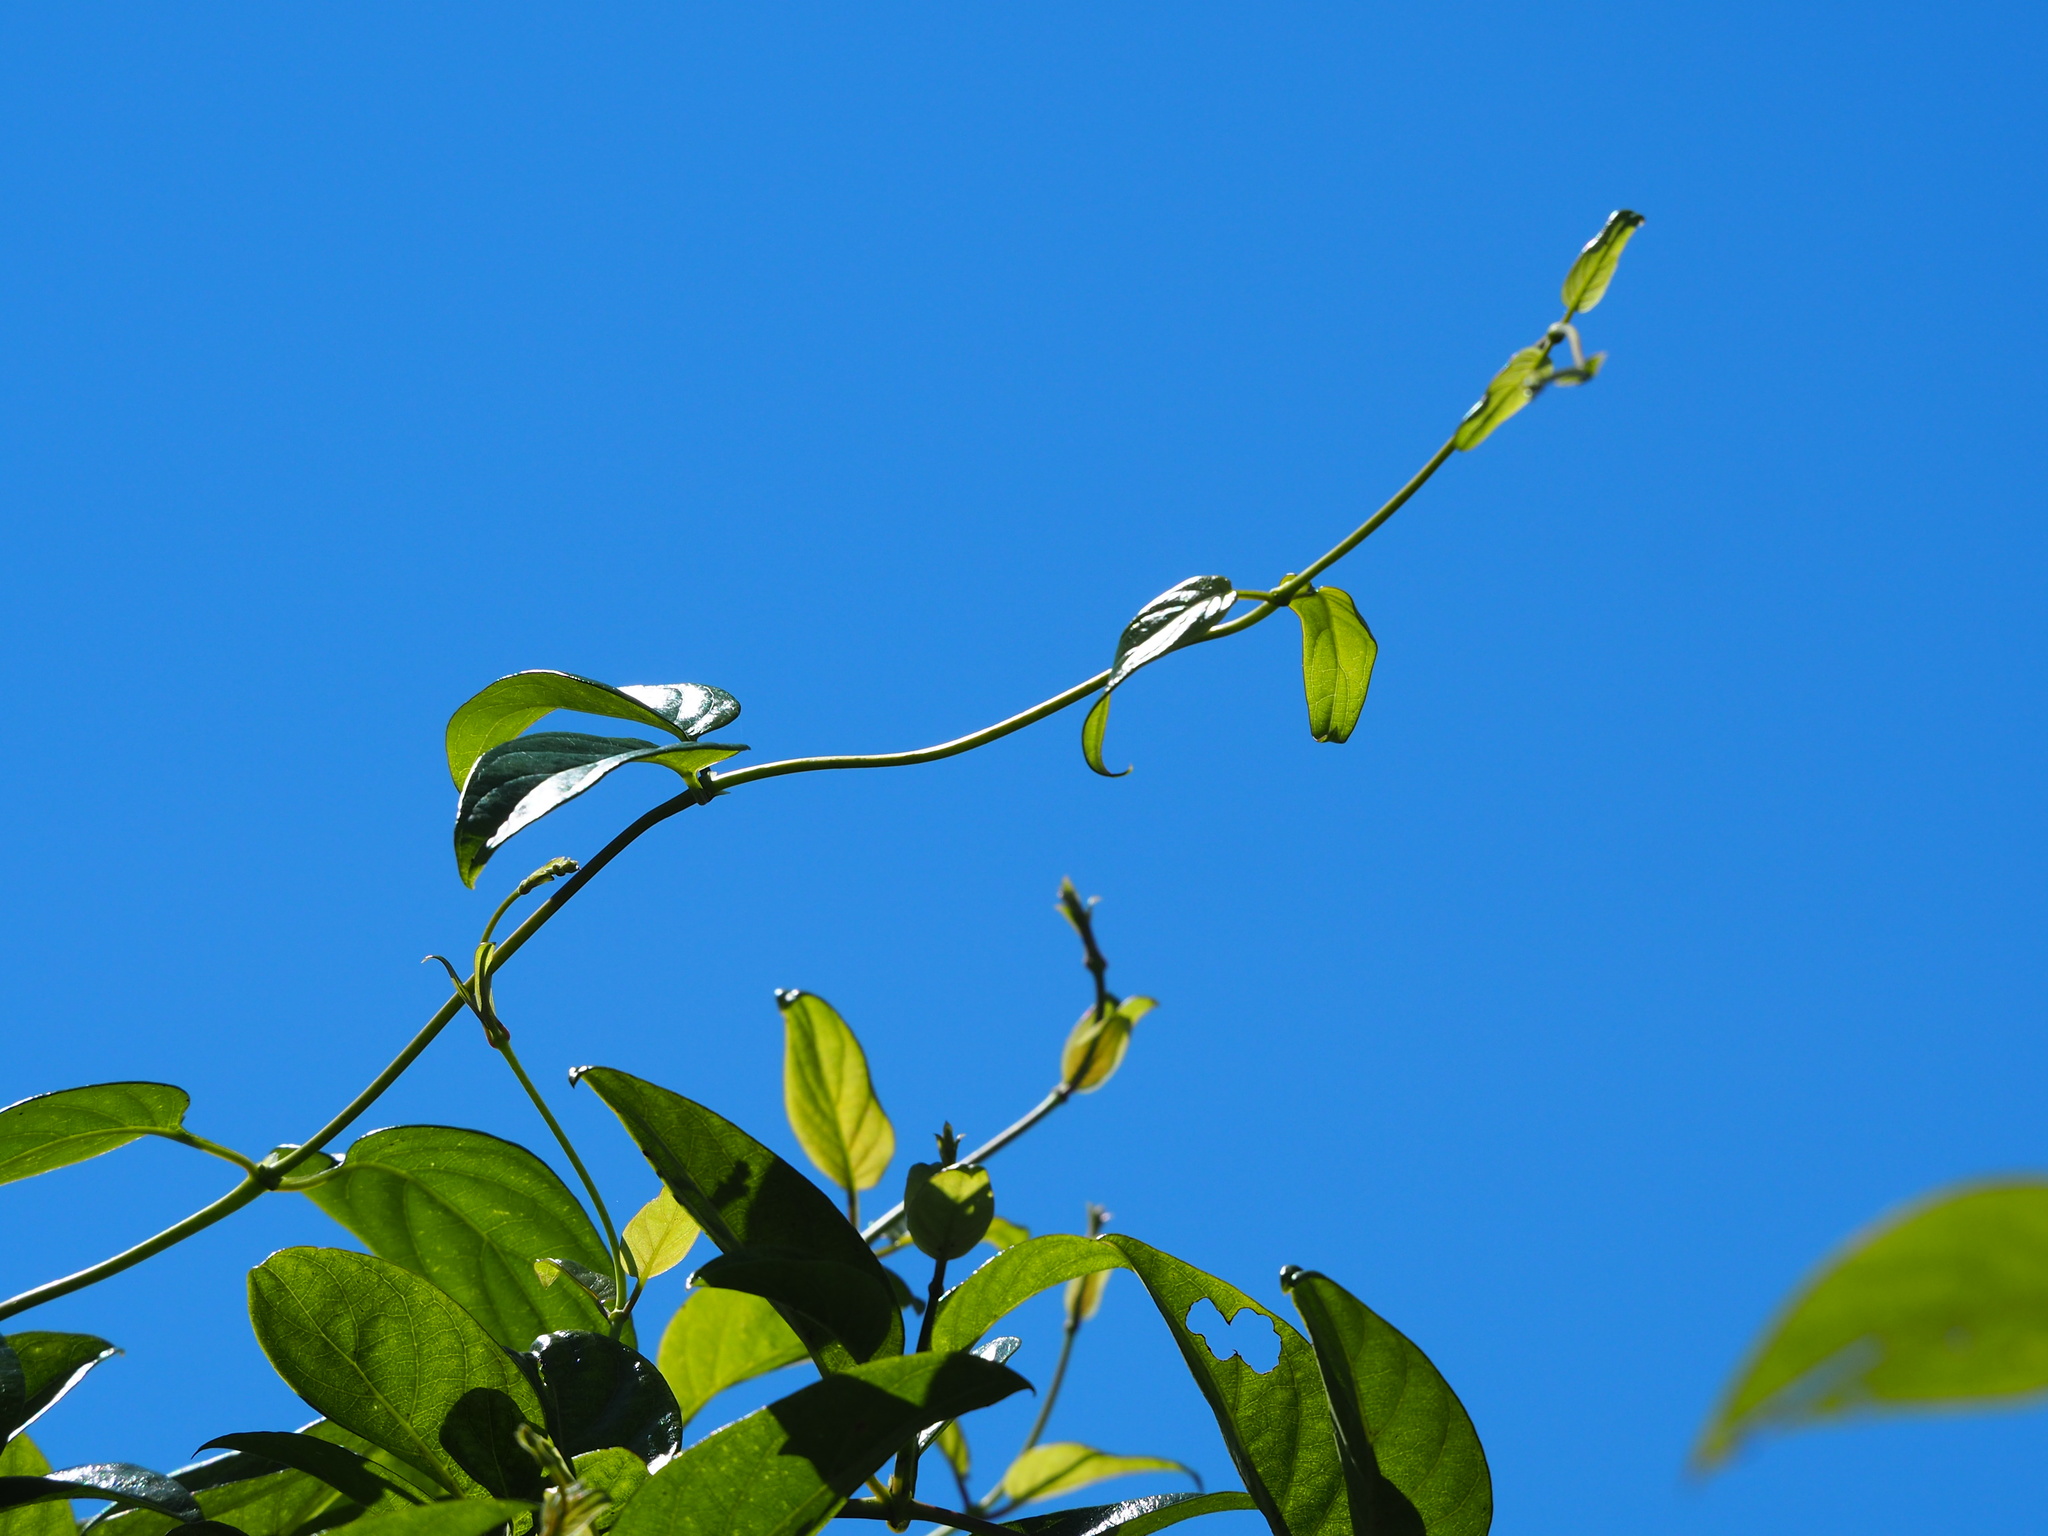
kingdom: Plantae
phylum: Tracheophyta
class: Magnoliopsida
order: Gentianales
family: Rubiaceae
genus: Paederia
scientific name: Paederia foetida
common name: Stinkvine
